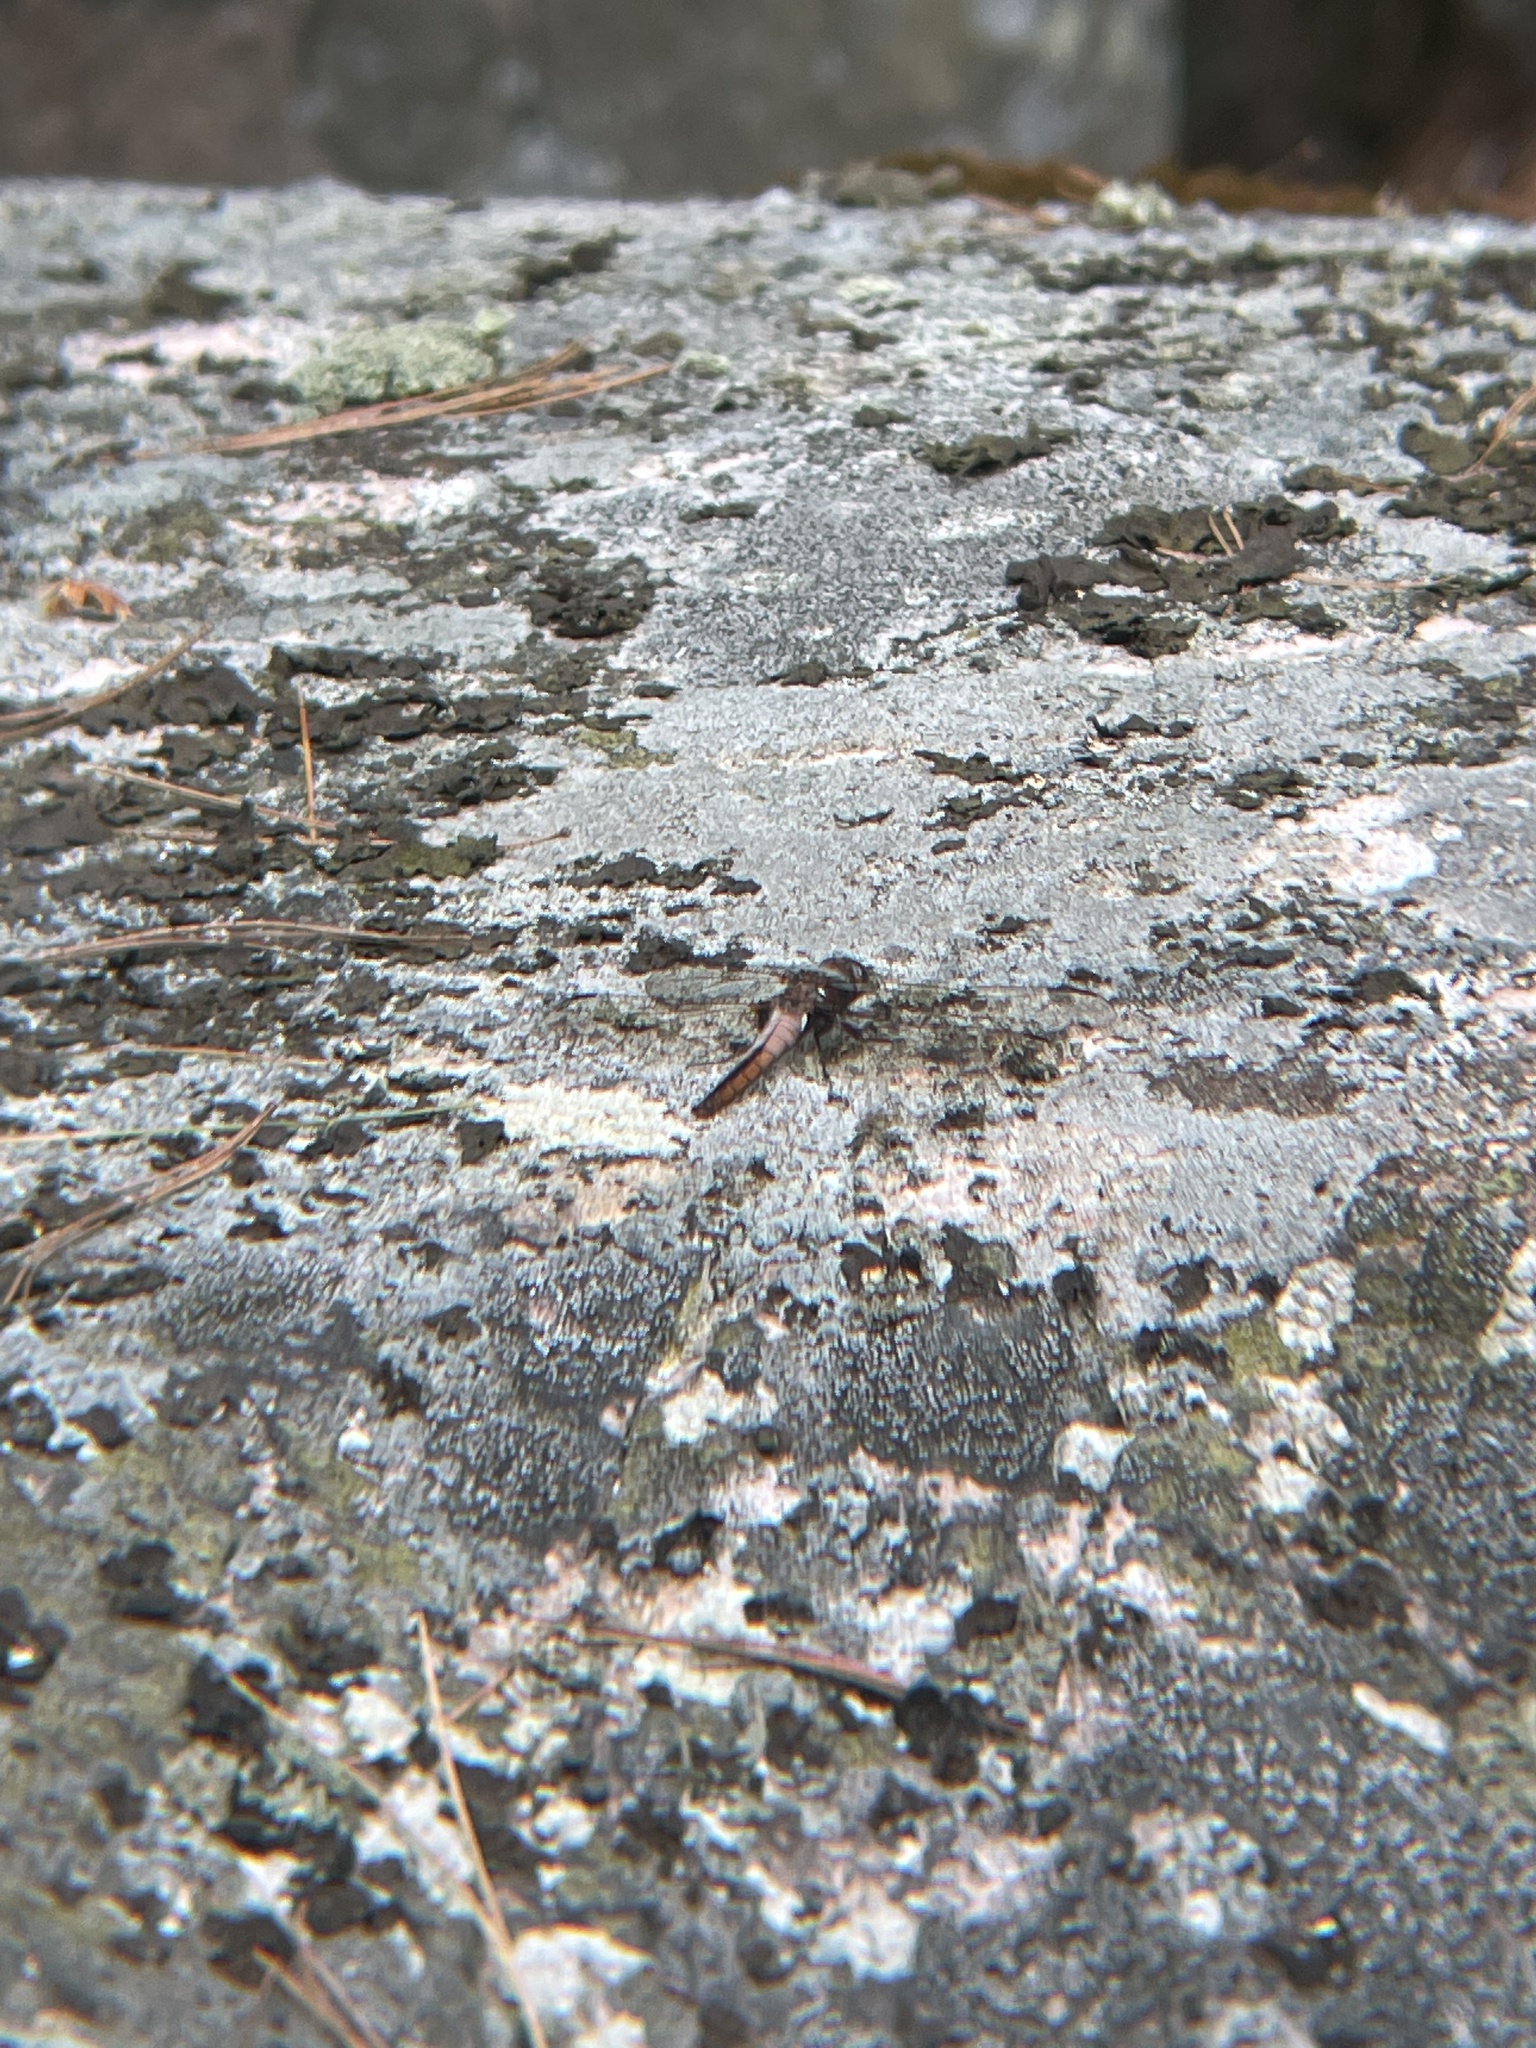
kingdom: Animalia
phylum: Arthropoda
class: Insecta
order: Odonata
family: Libellulidae
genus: Ladona
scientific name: Ladona julia
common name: Chalk-fronted corporal
